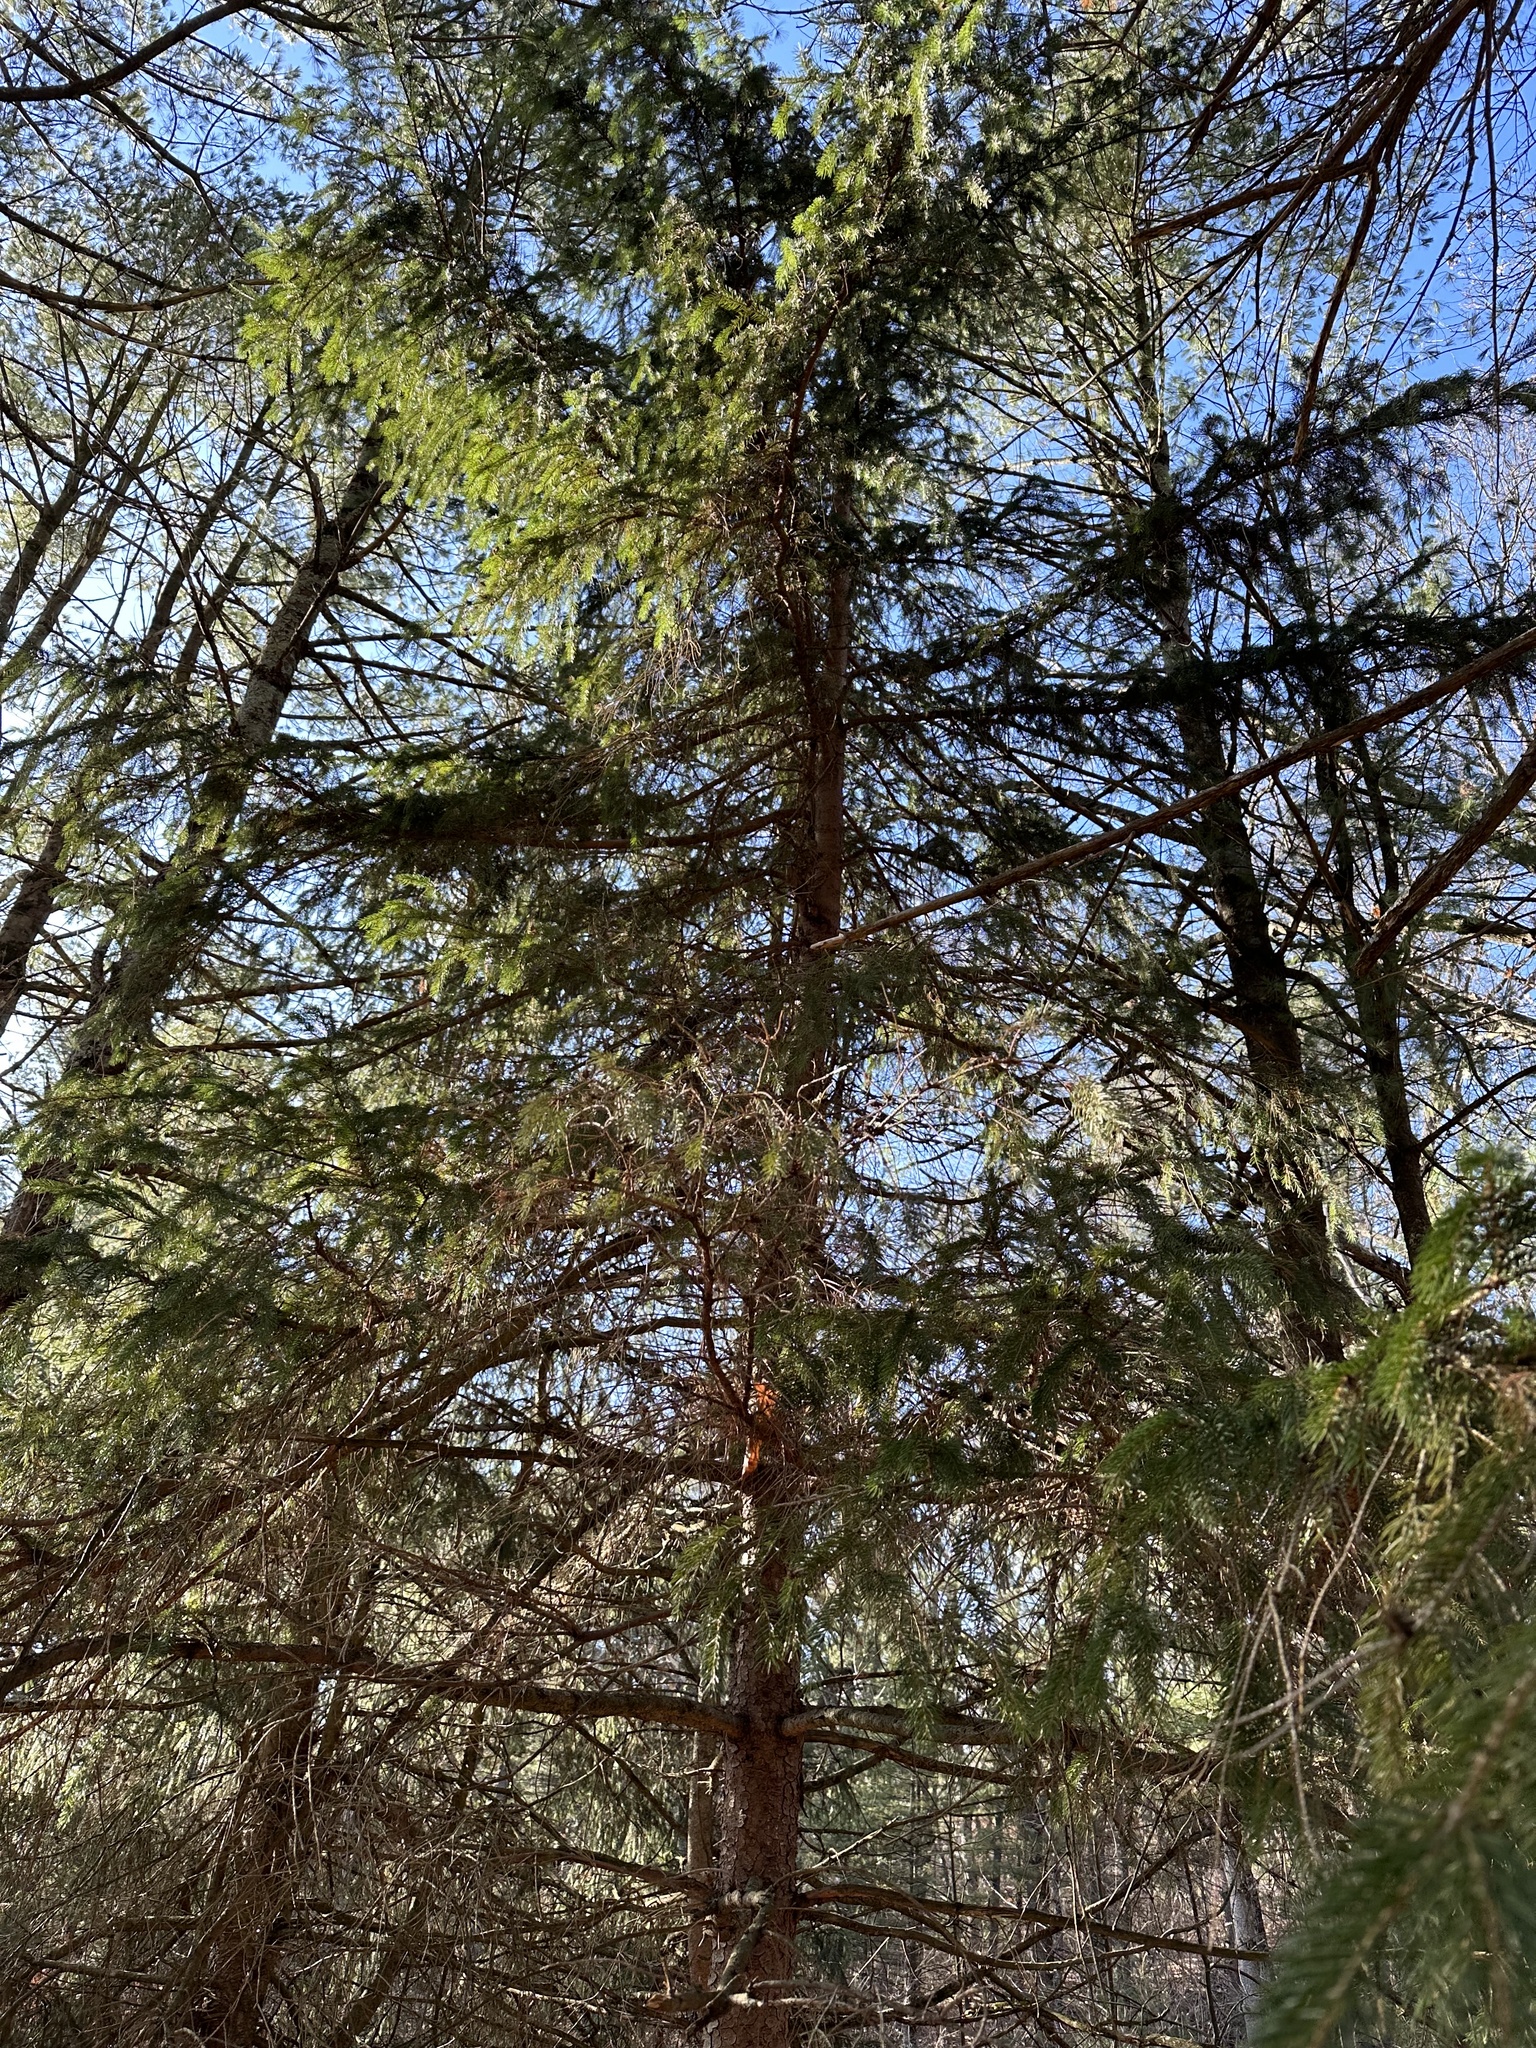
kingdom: Plantae
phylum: Tracheophyta
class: Pinopsida
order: Pinales
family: Pinaceae
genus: Picea
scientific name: Picea abies
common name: Norway spruce
